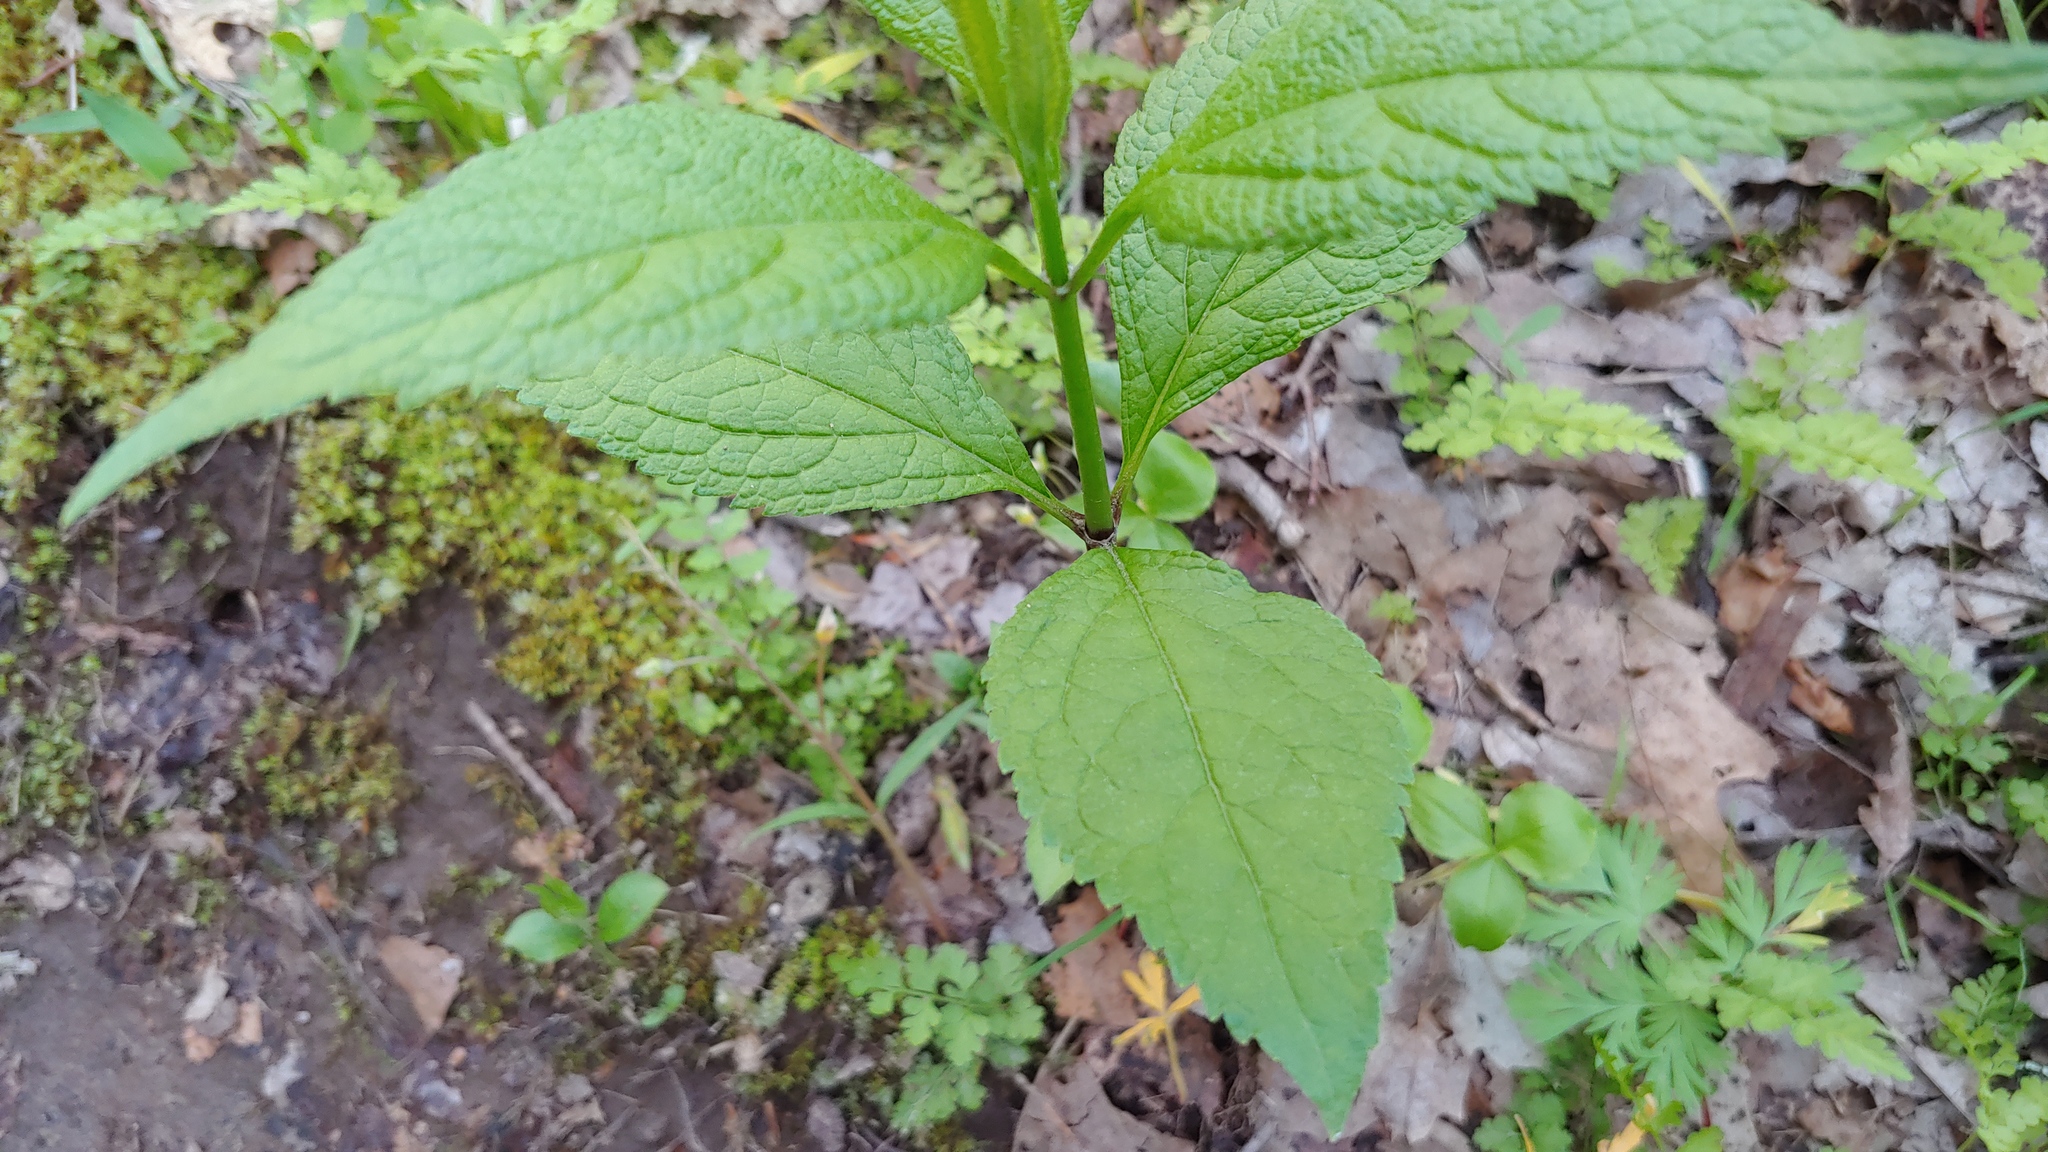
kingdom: Plantae
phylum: Tracheophyta
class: Magnoliopsida
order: Asterales
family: Asteraceae
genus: Eutrochium
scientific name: Eutrochium purpureum
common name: Gravelroot
